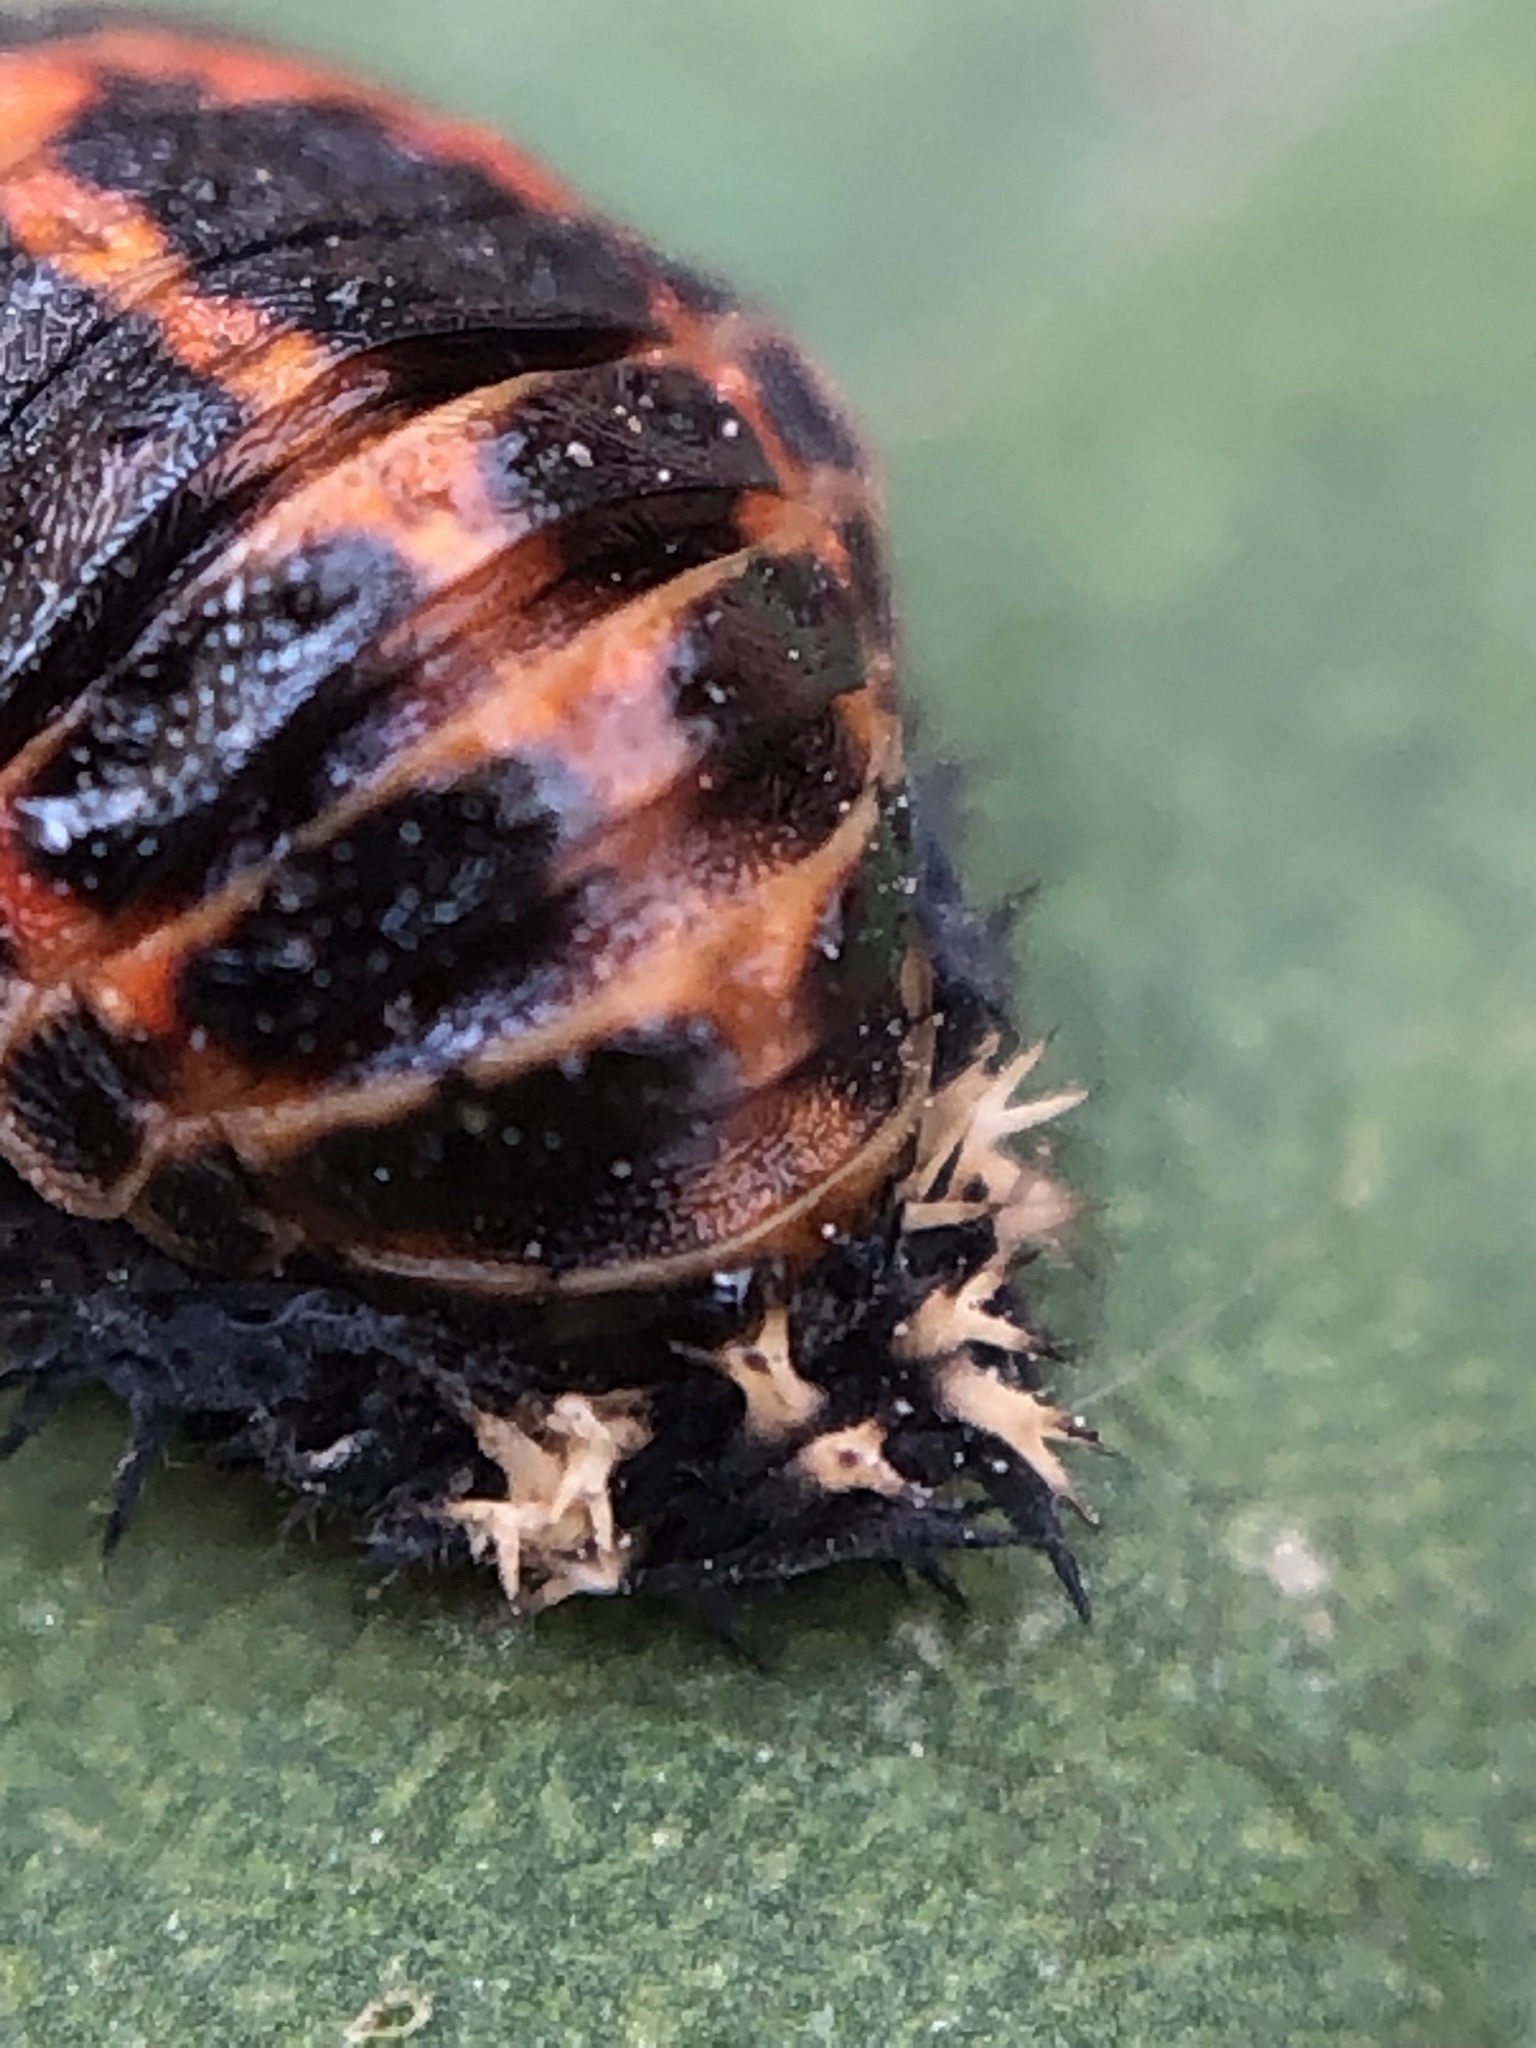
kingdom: Animalia
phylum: Arthropoda
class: Insecta
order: Coleoptera
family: Coccinellidae
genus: Harmonia
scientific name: Harmonia axyridis
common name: Harlequin ladybird
